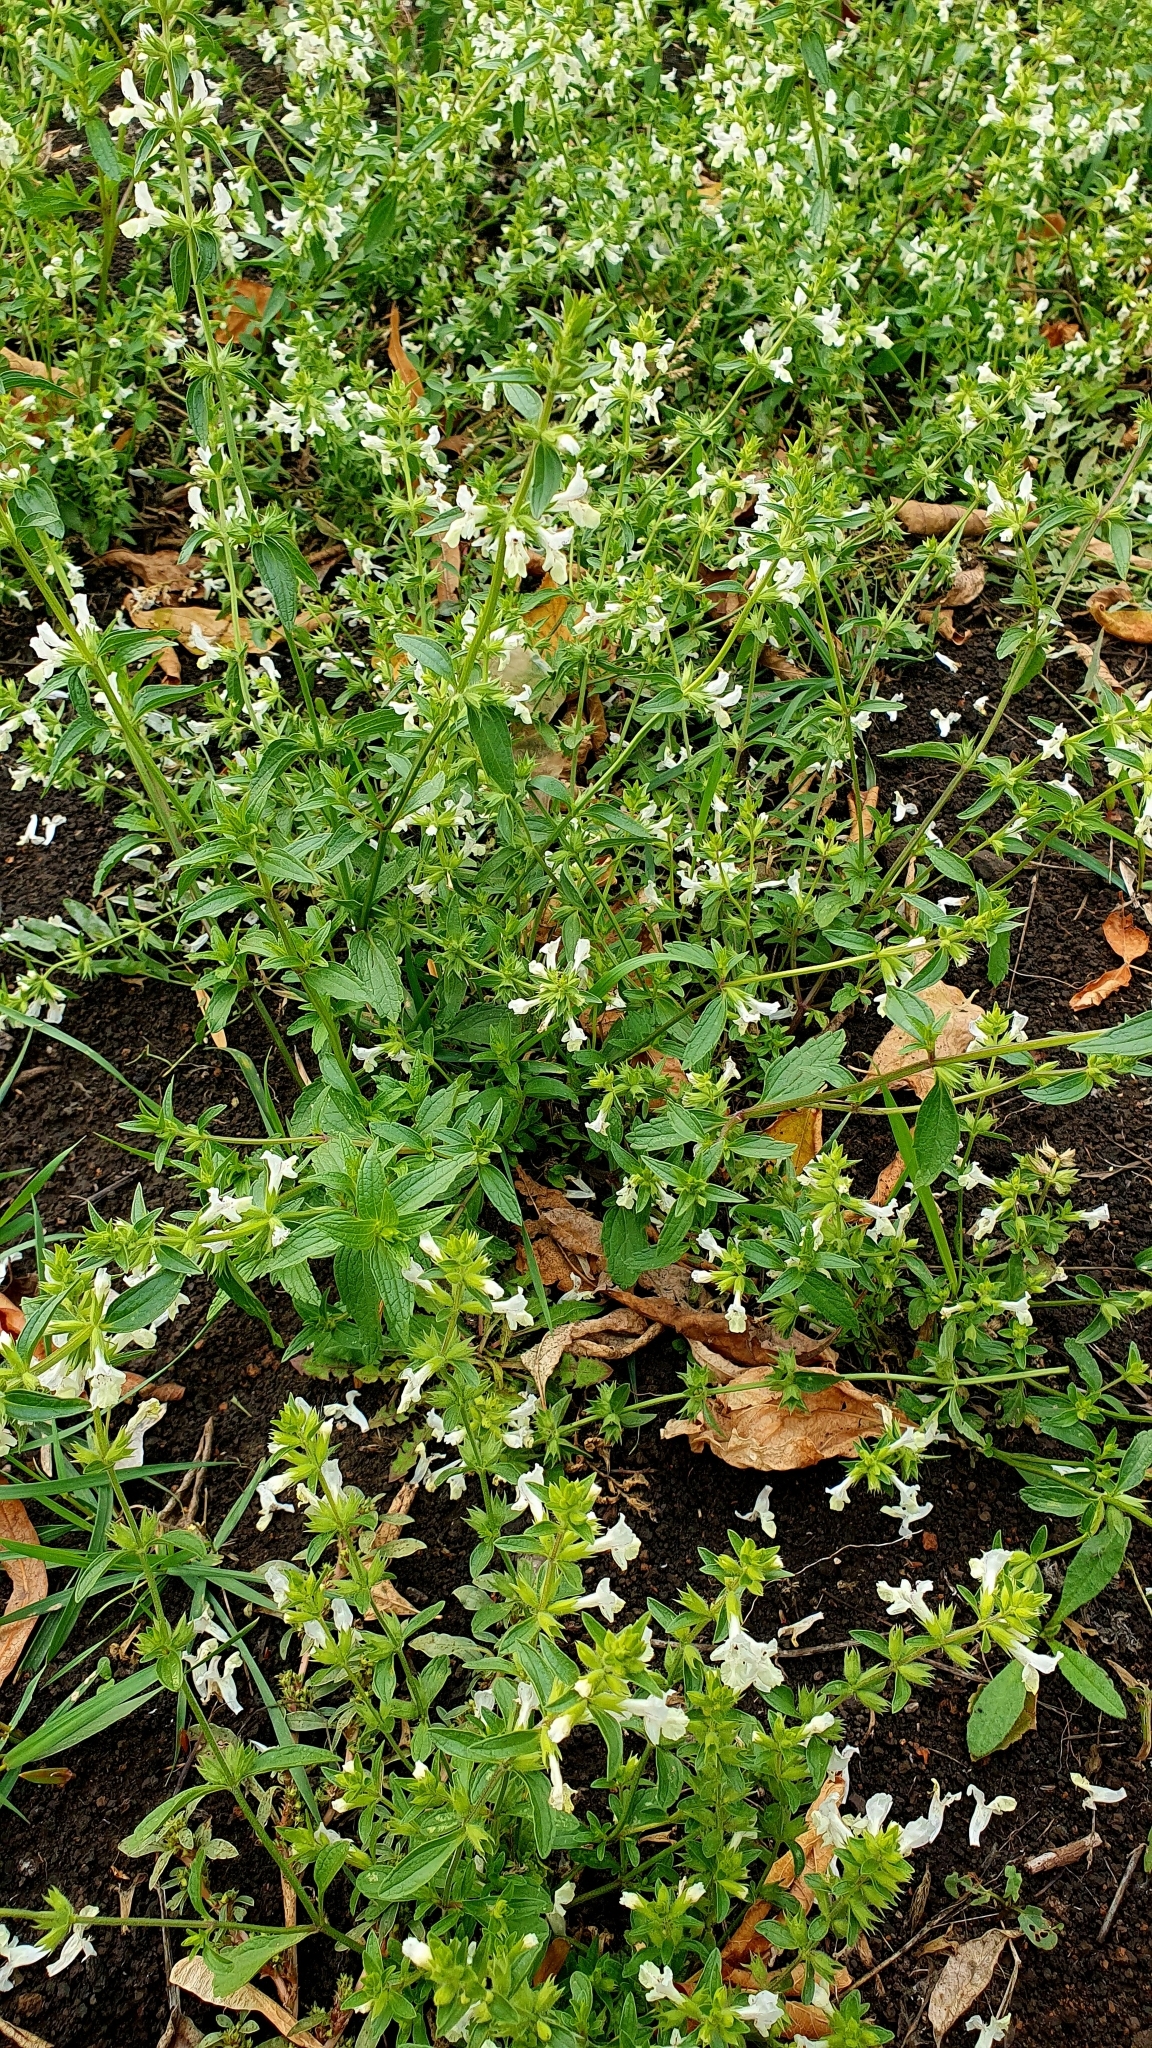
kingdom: Plantae
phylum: Tracheophyta
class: Magnoliopsida
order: Lamiales
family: Lamiaceae
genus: Stachys
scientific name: Stachys annua
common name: Annual yellow-woundwort
